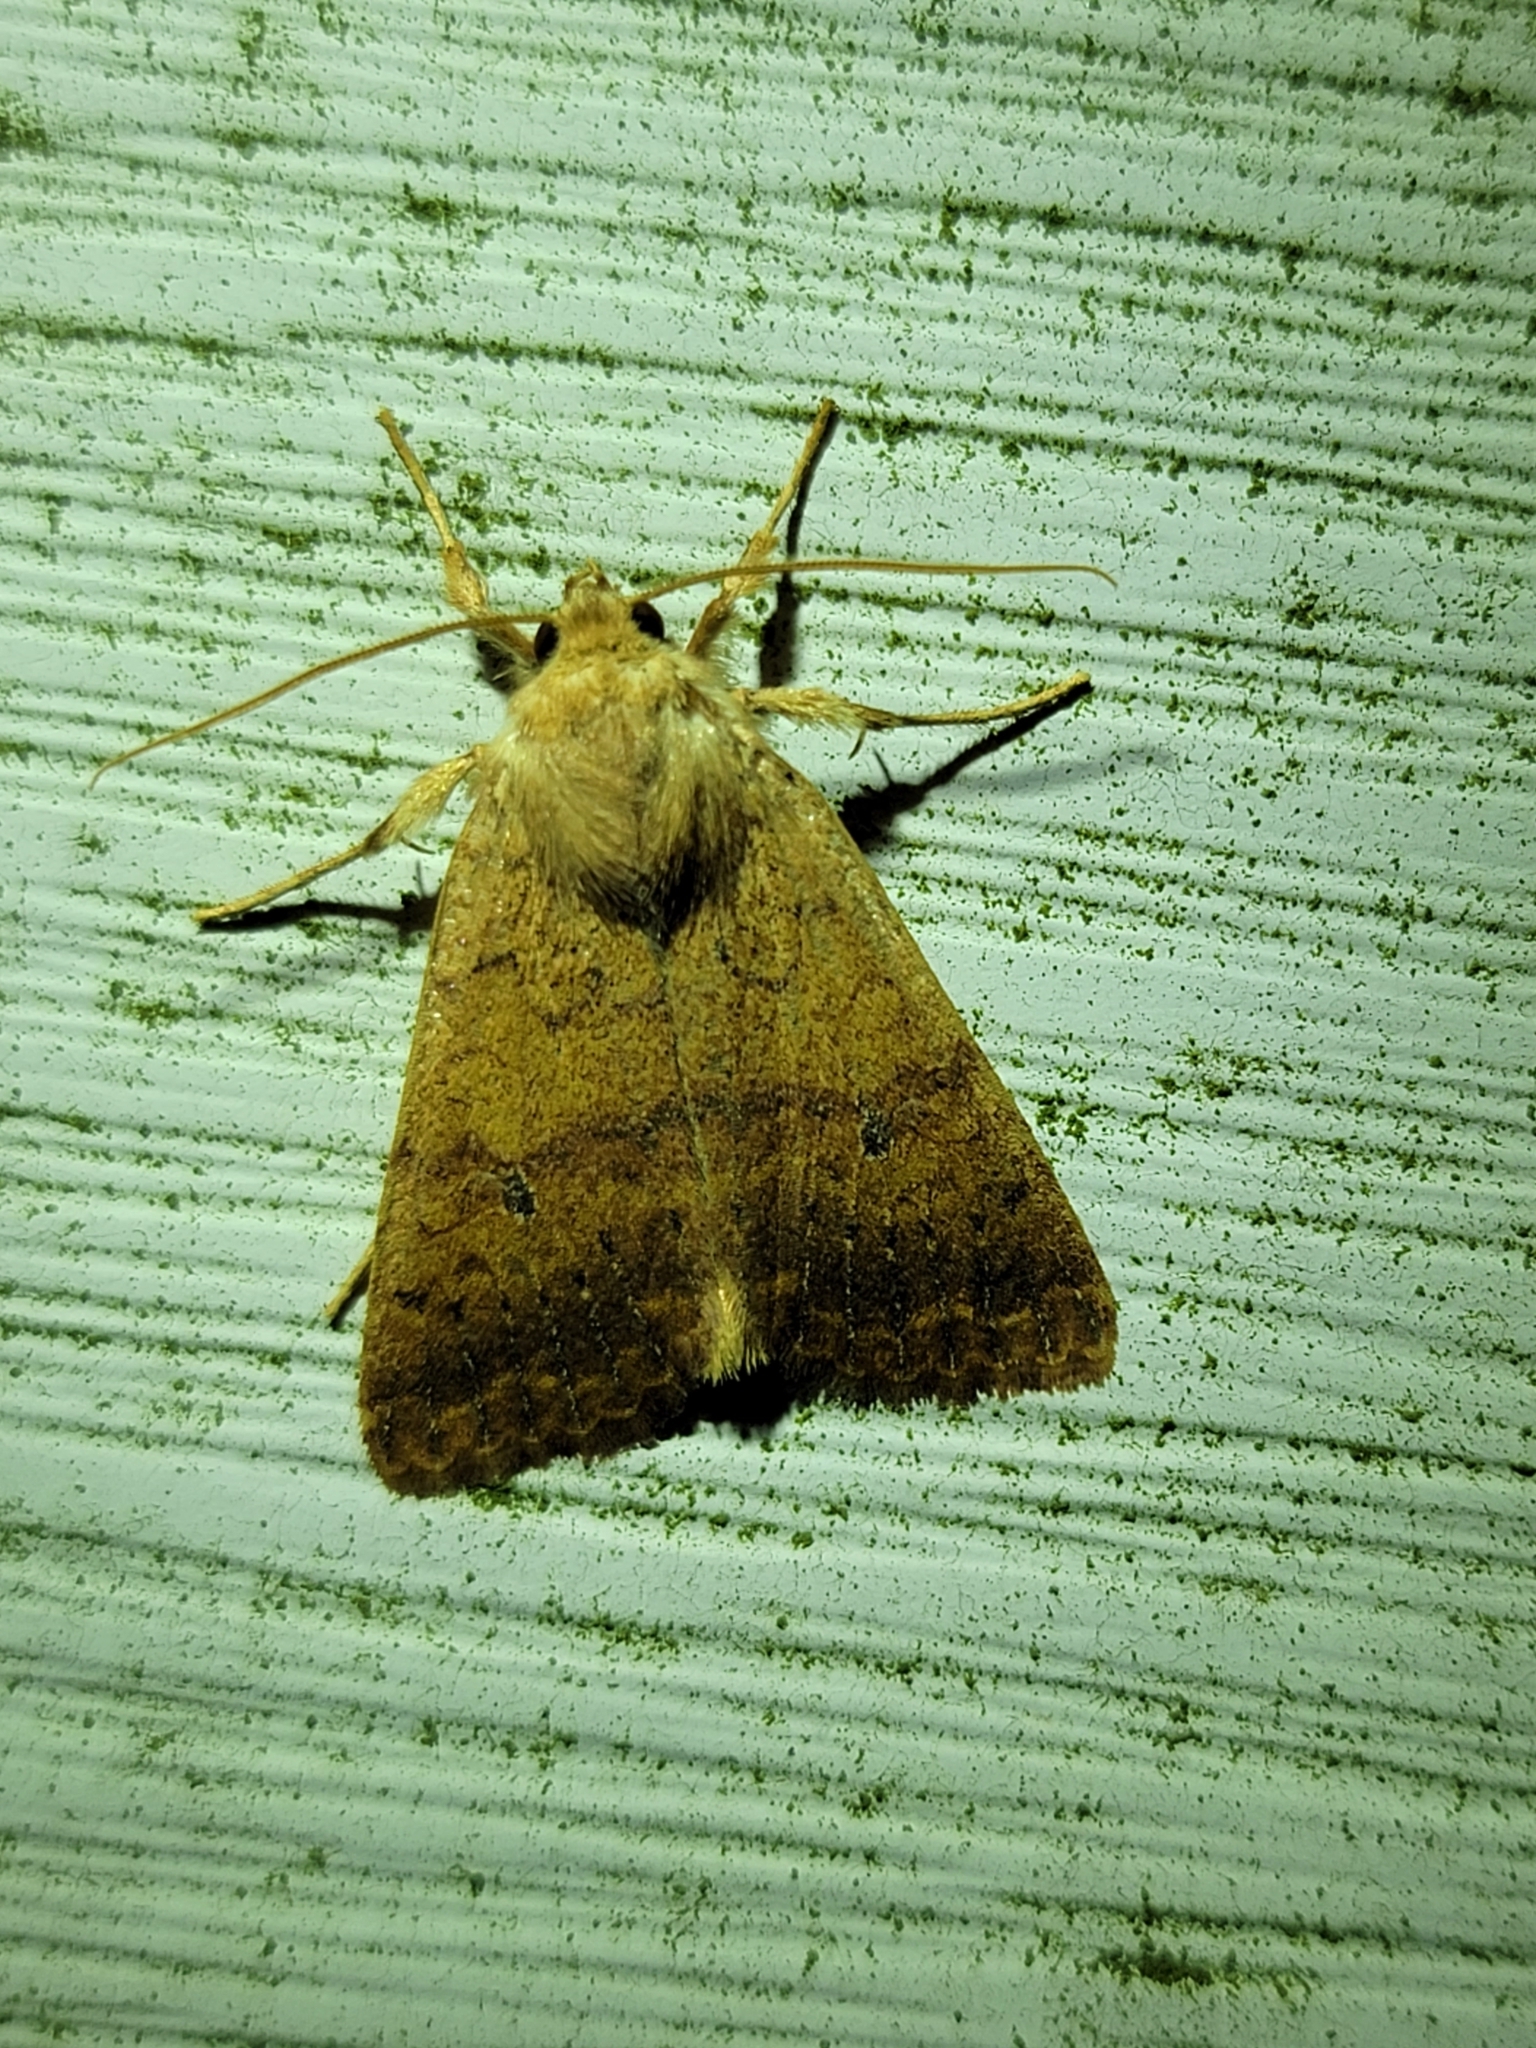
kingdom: Animalia
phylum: Arthropoda
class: Insecta
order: Lepidoptera
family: Noctuidae
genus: Agrochola
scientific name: Agrochola bicolorago
